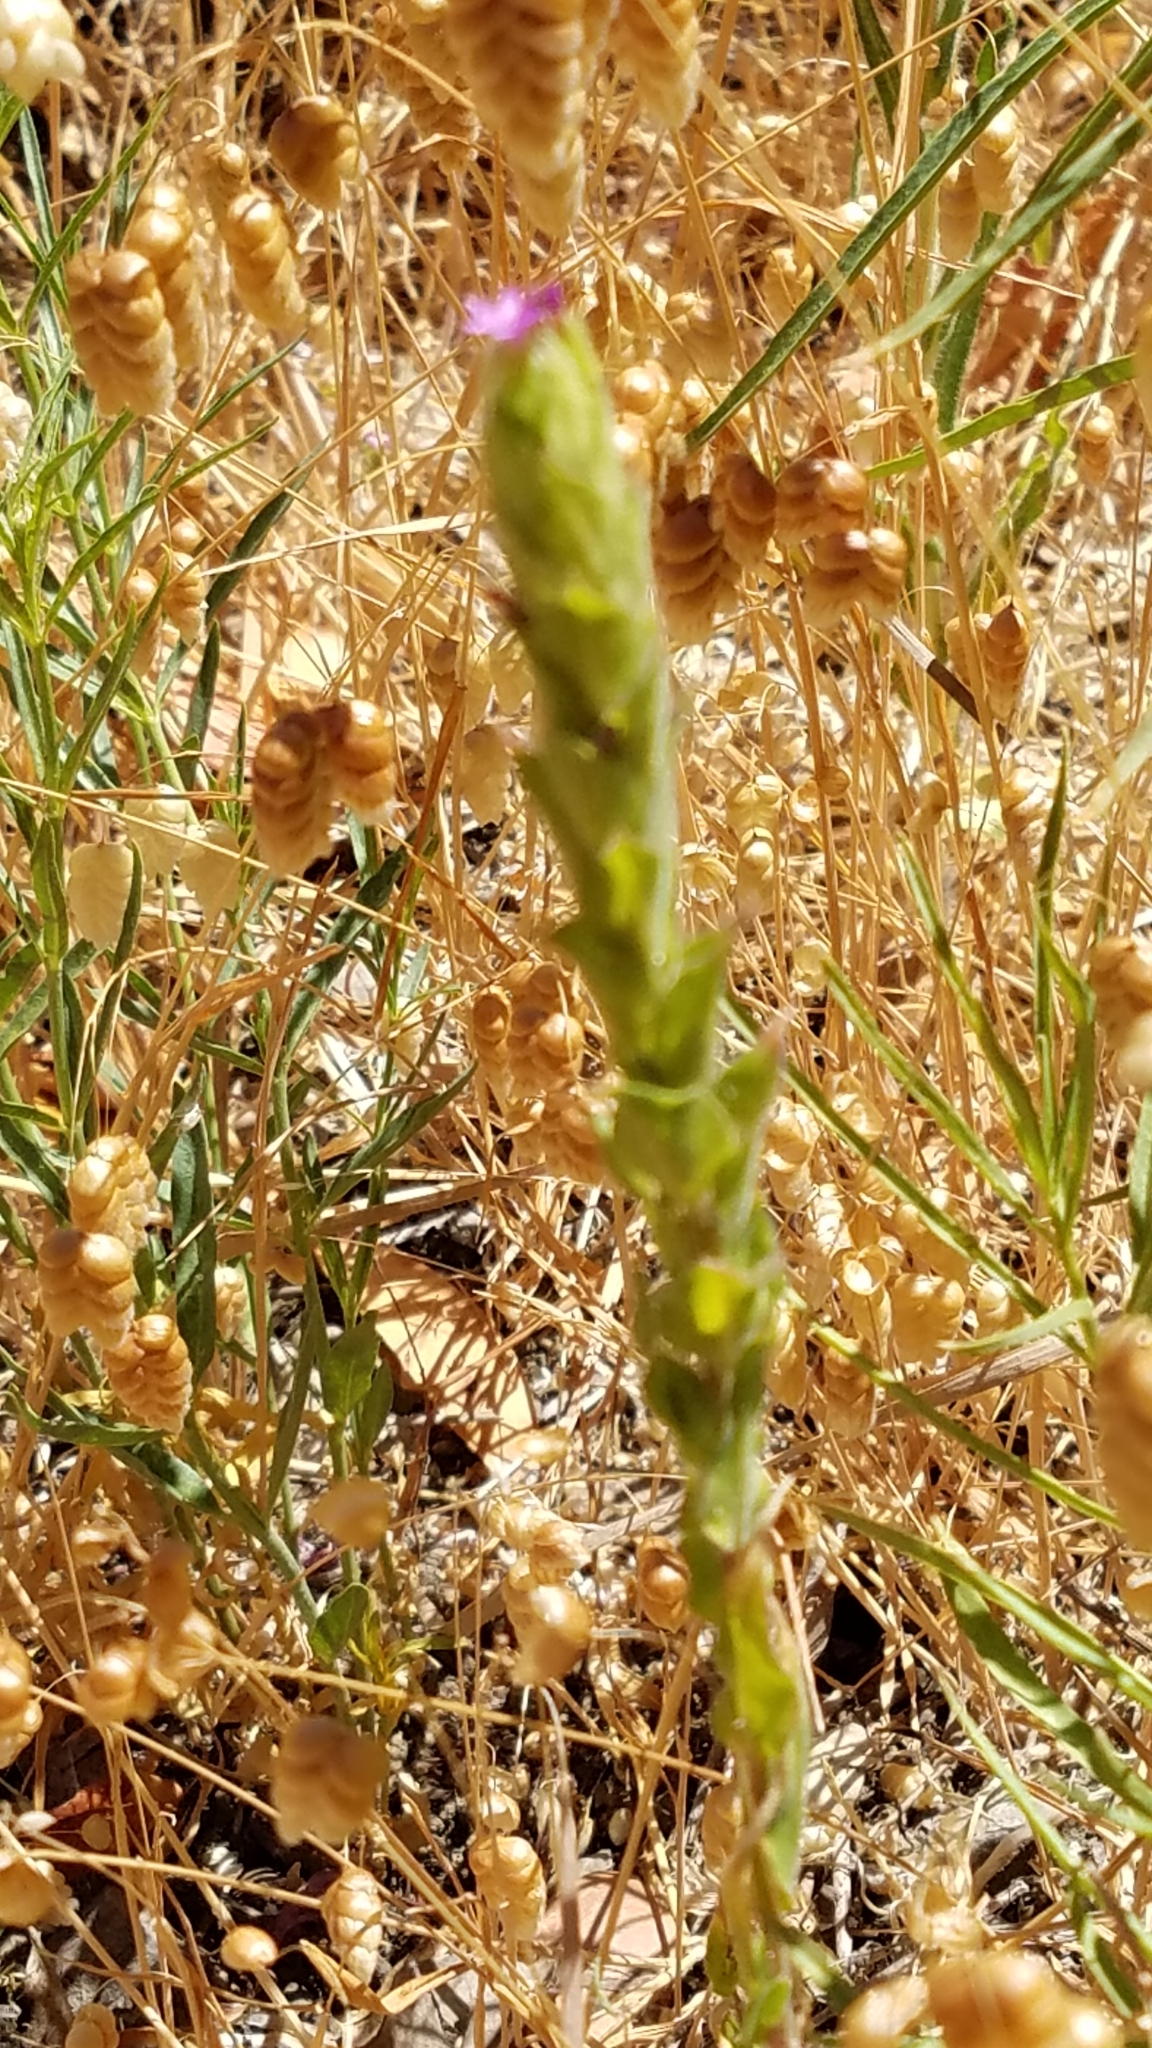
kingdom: Plantae
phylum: Tracheophyta
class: Magnoliopsida
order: Myrtales
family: Onagraceae
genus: Epilobium
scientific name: Epilobium densiflorum
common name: Dense spike-primrose
